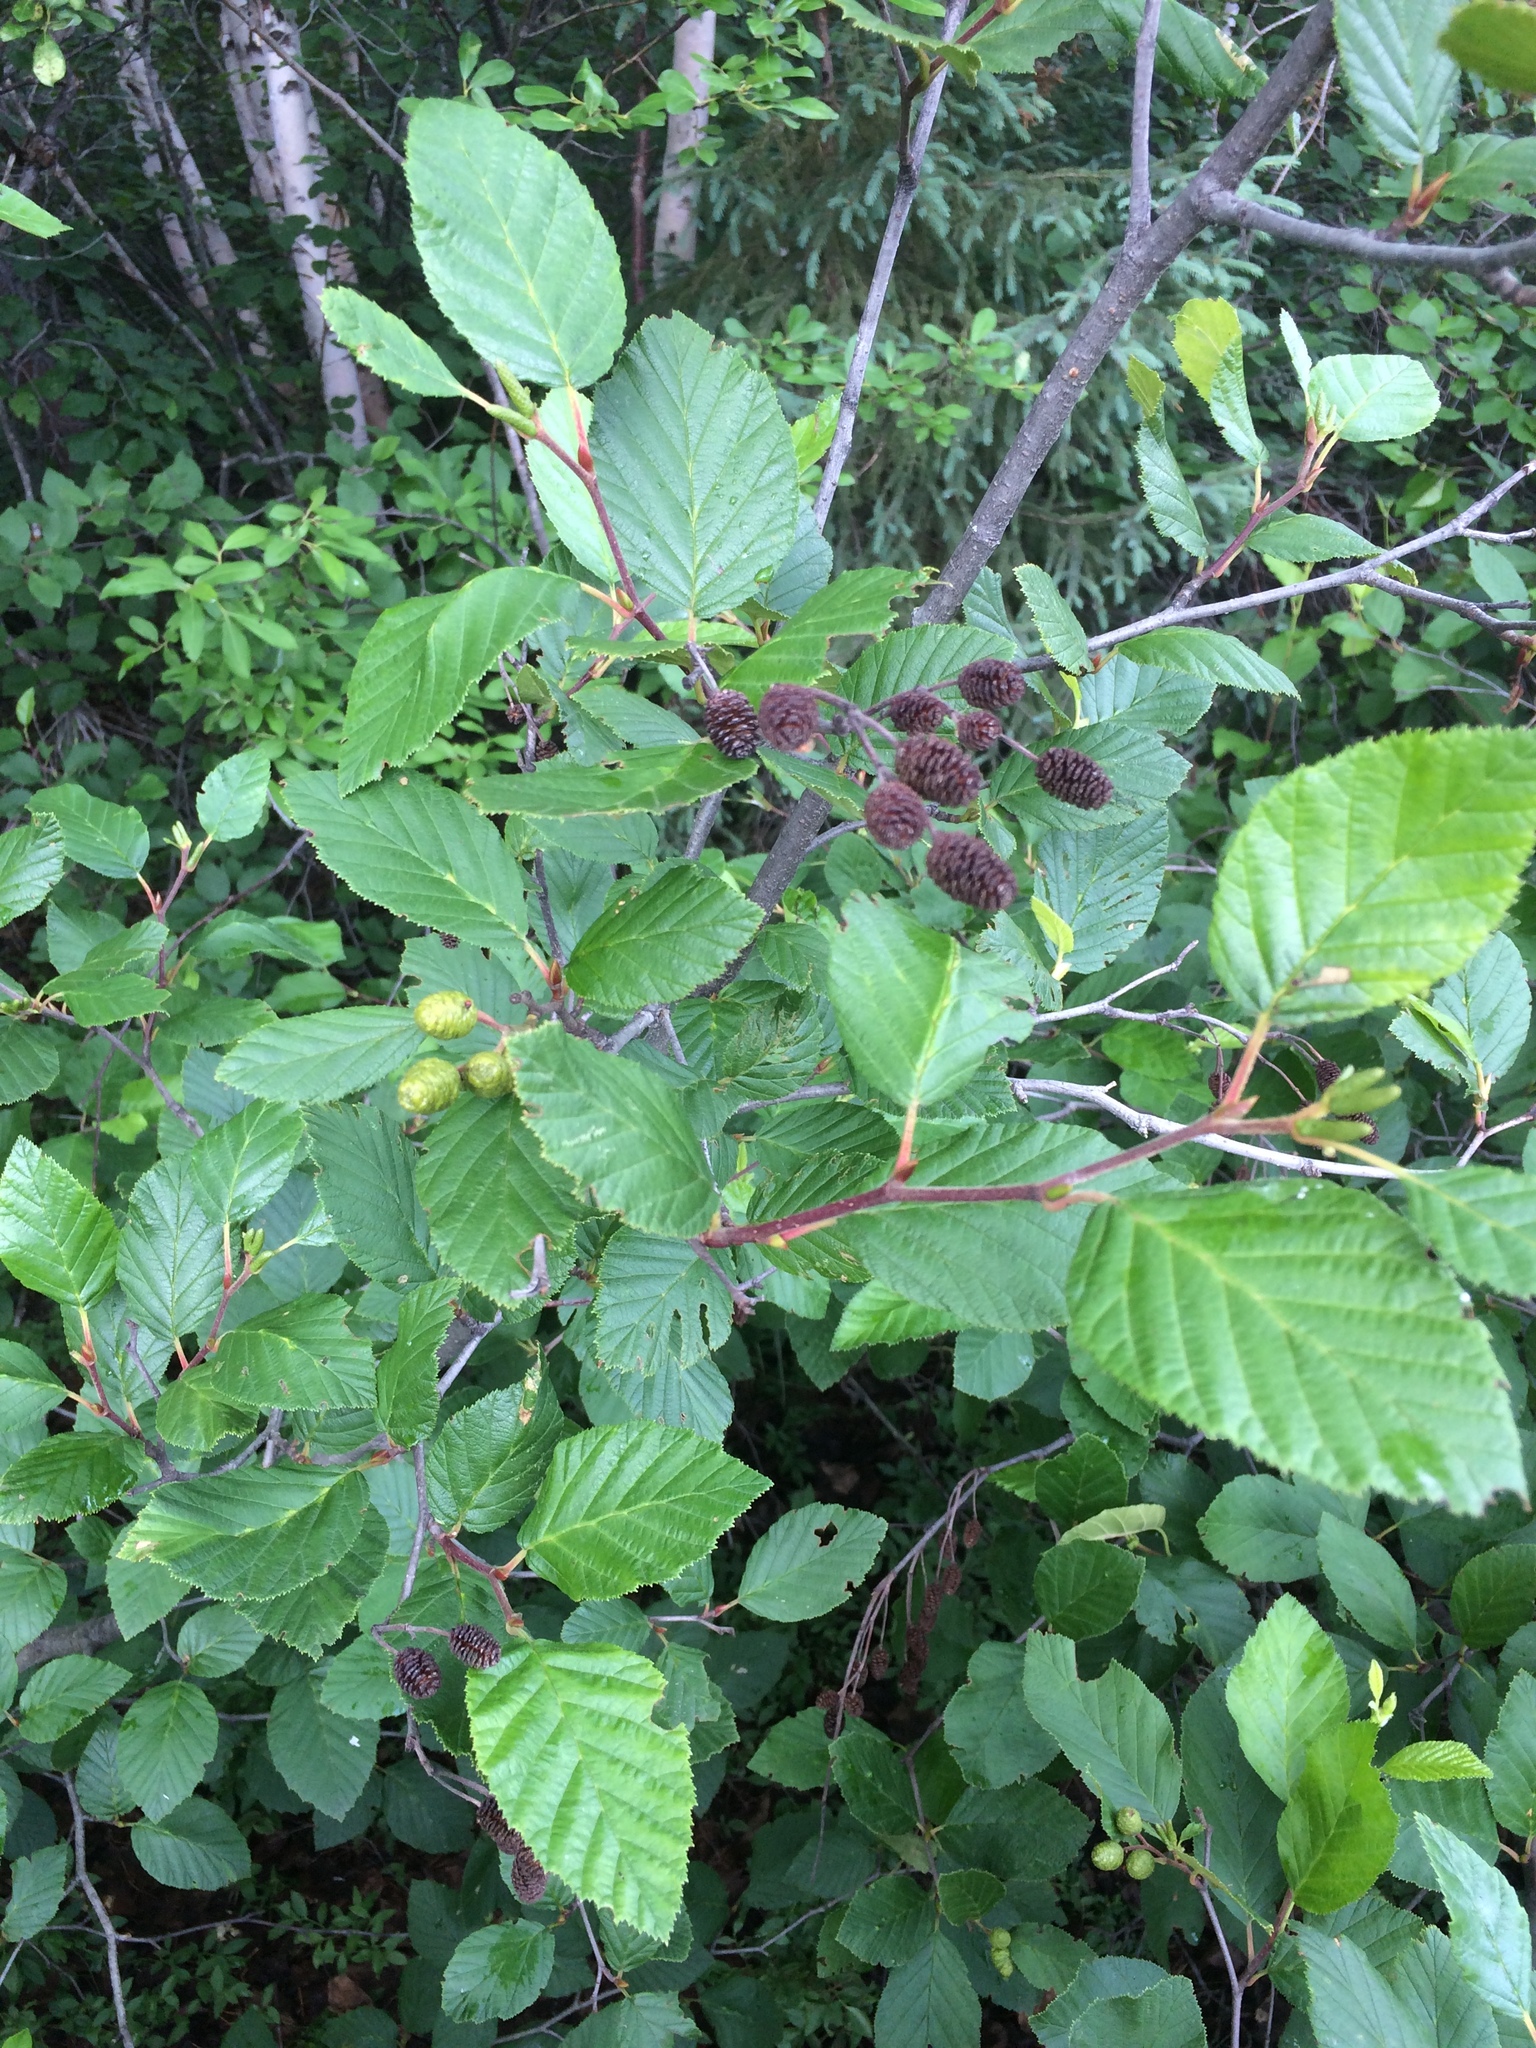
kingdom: Plantae
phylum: Tracheophyta
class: Magnoliopsida
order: Fagales
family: Betulaceae
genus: Alnus
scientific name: Alnus alnobetula
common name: Green alder
